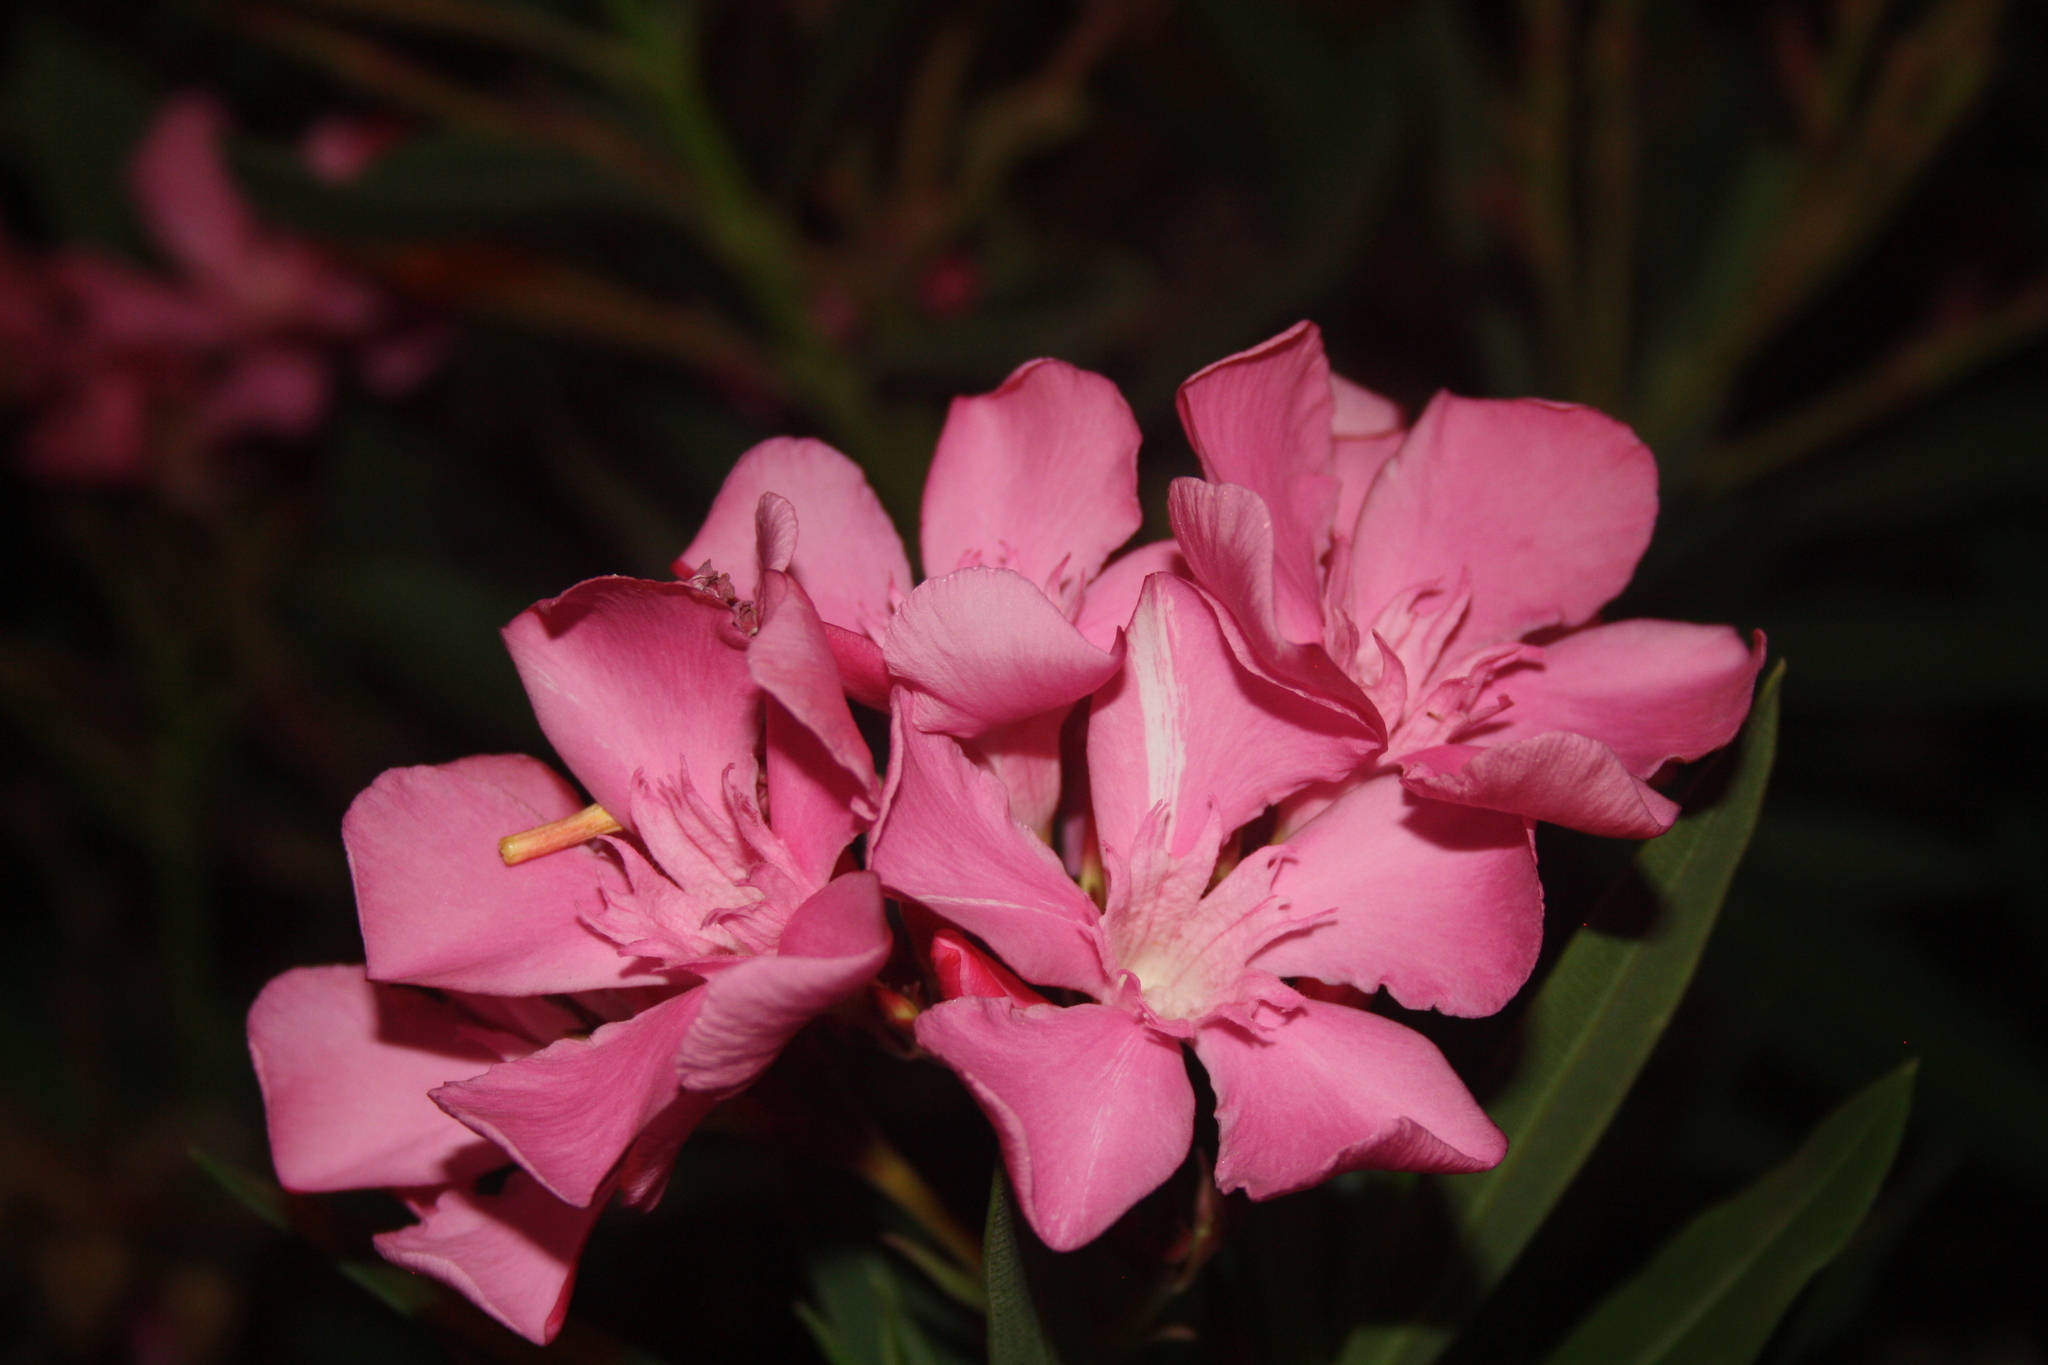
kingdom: Plantae
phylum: Tracheophyta
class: Magnoliopsida
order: Gentianales
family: Apocynaceae
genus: Nerium
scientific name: Nerium oleander
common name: Oleander
